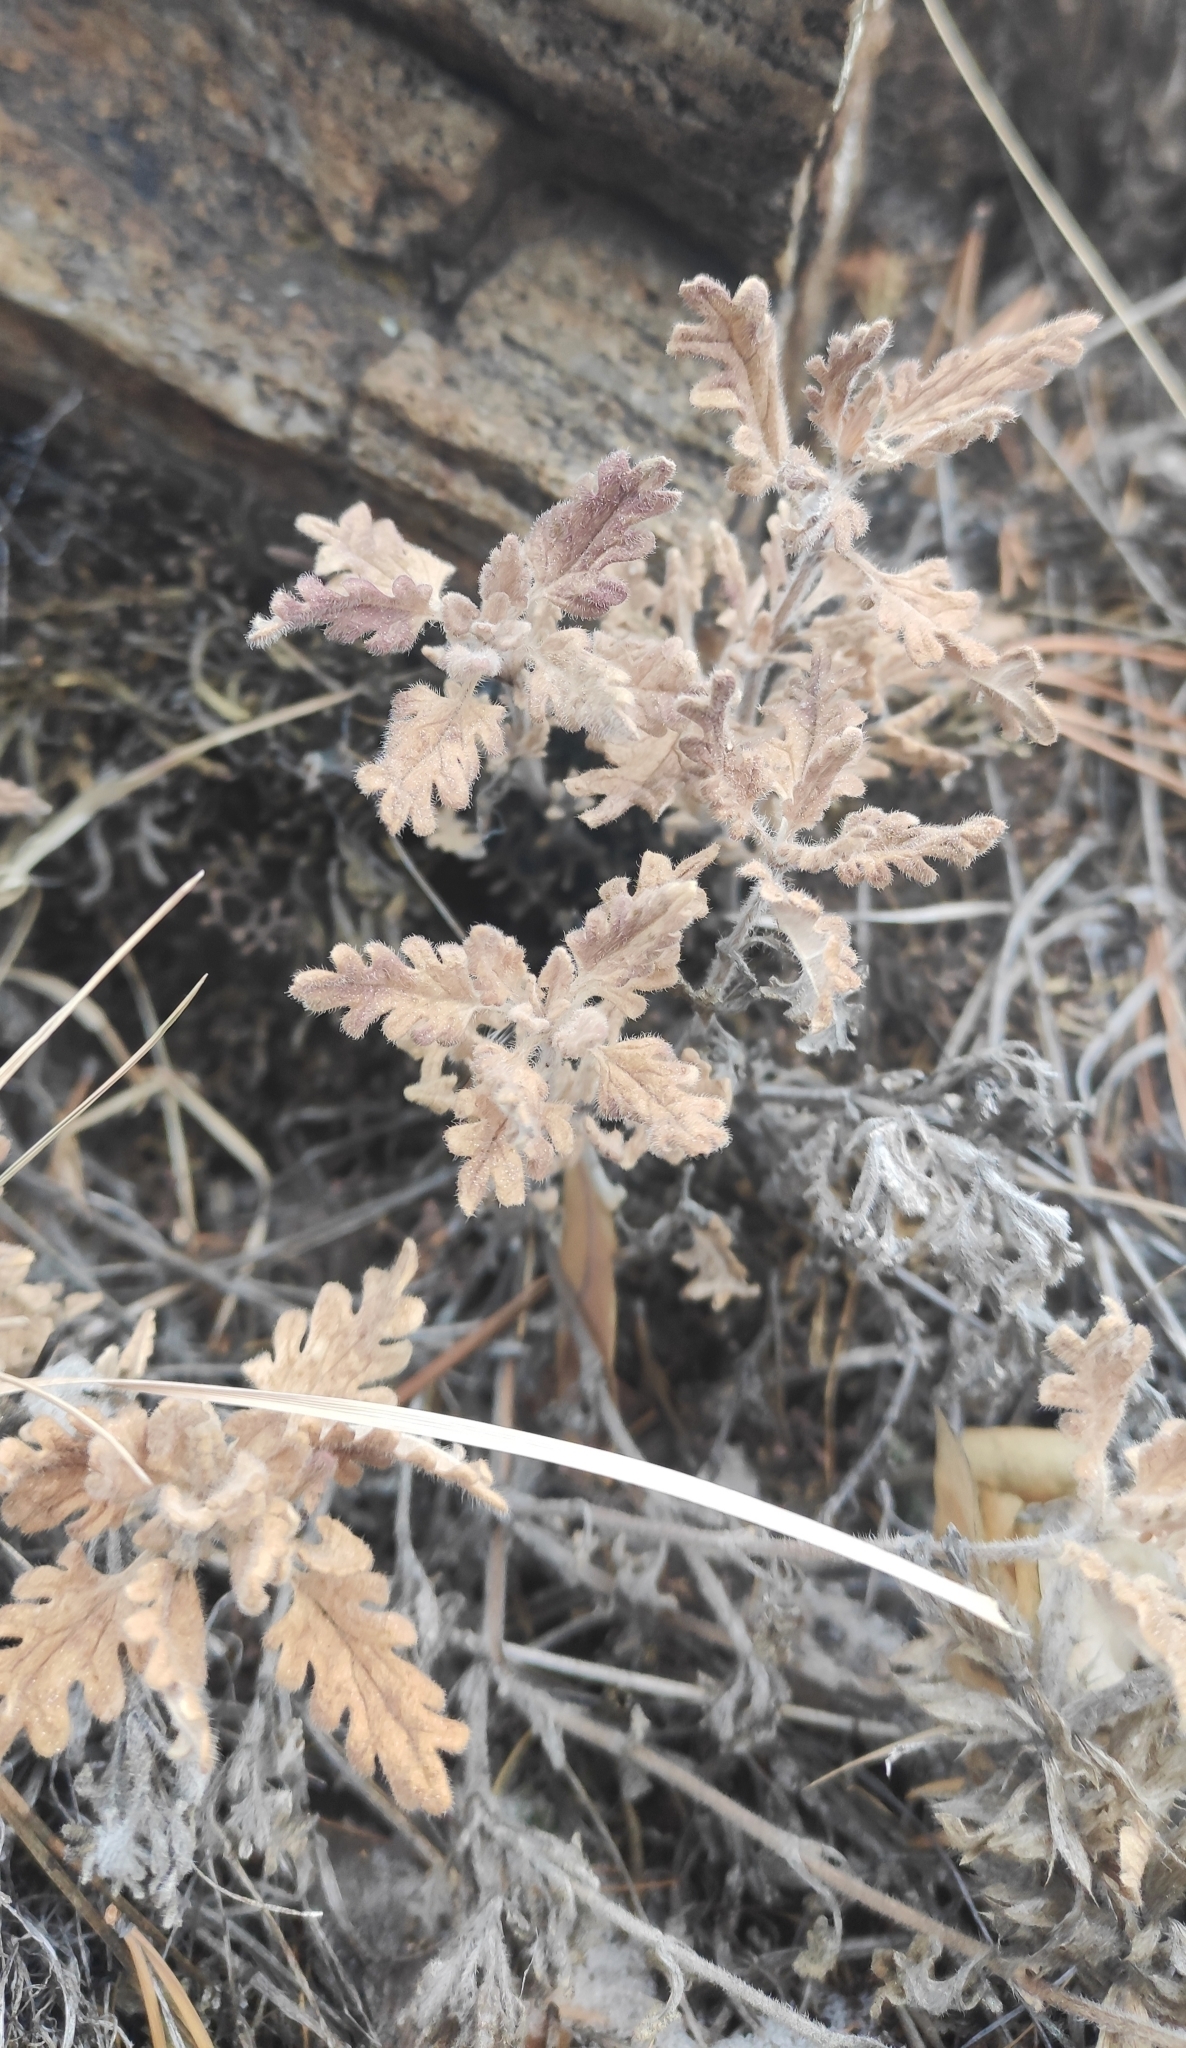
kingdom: Plantae
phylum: Tracheophyta
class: Magnoliopsida
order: Lamiales
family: Lamiaceae
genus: Dracocephalum
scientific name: Dracocephalum pinnatum
